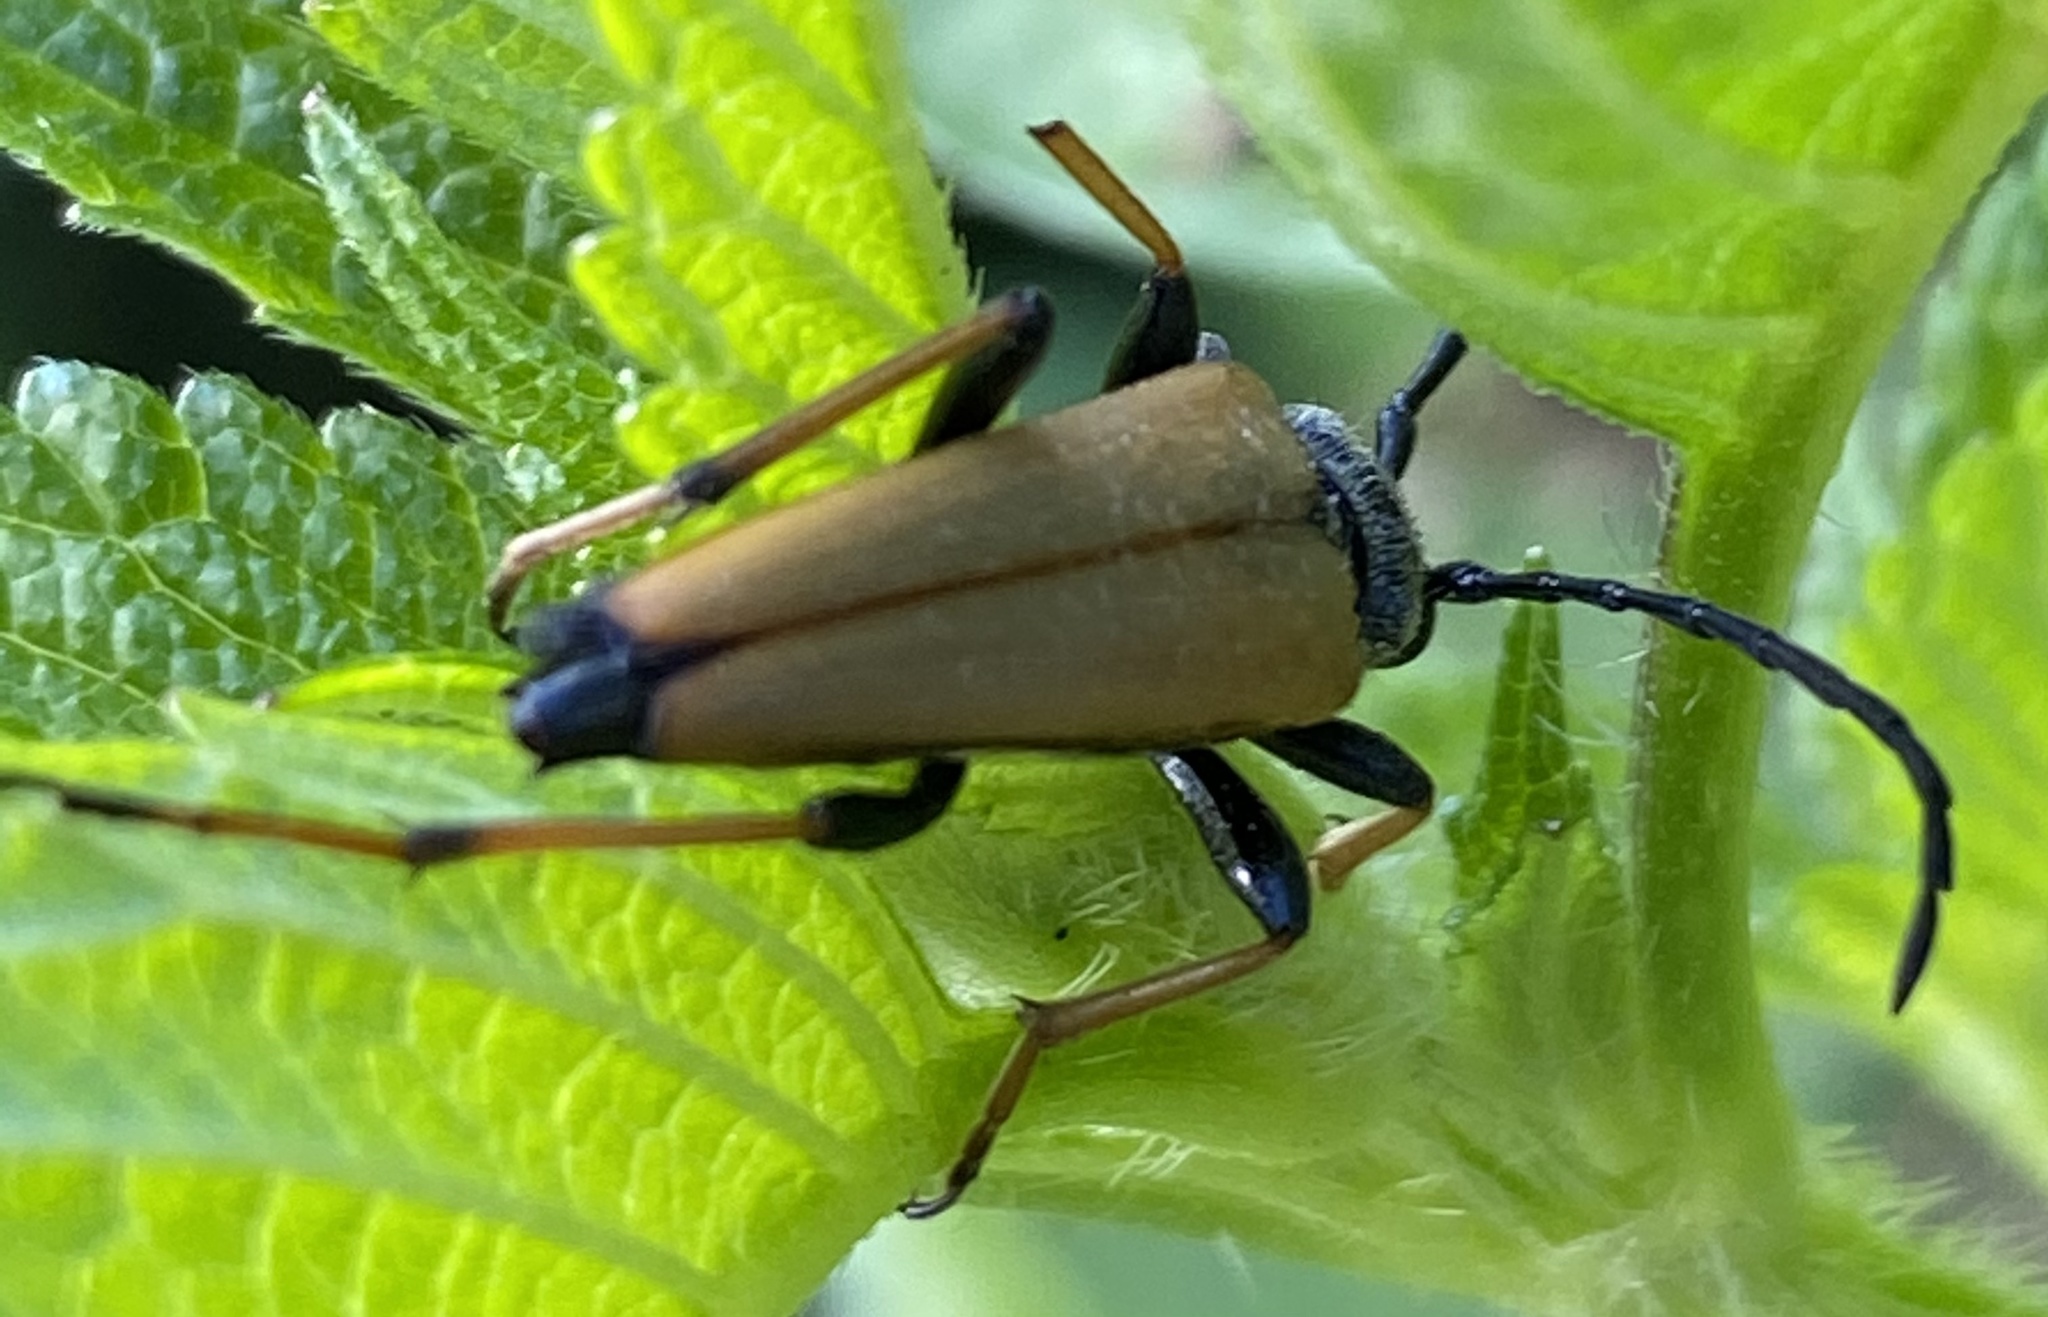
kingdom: Animalia
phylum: Arthropoda
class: Insecta
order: Coleoptera
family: Cerambycidae
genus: Stictoleptura
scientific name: Stictoleptura rubra
